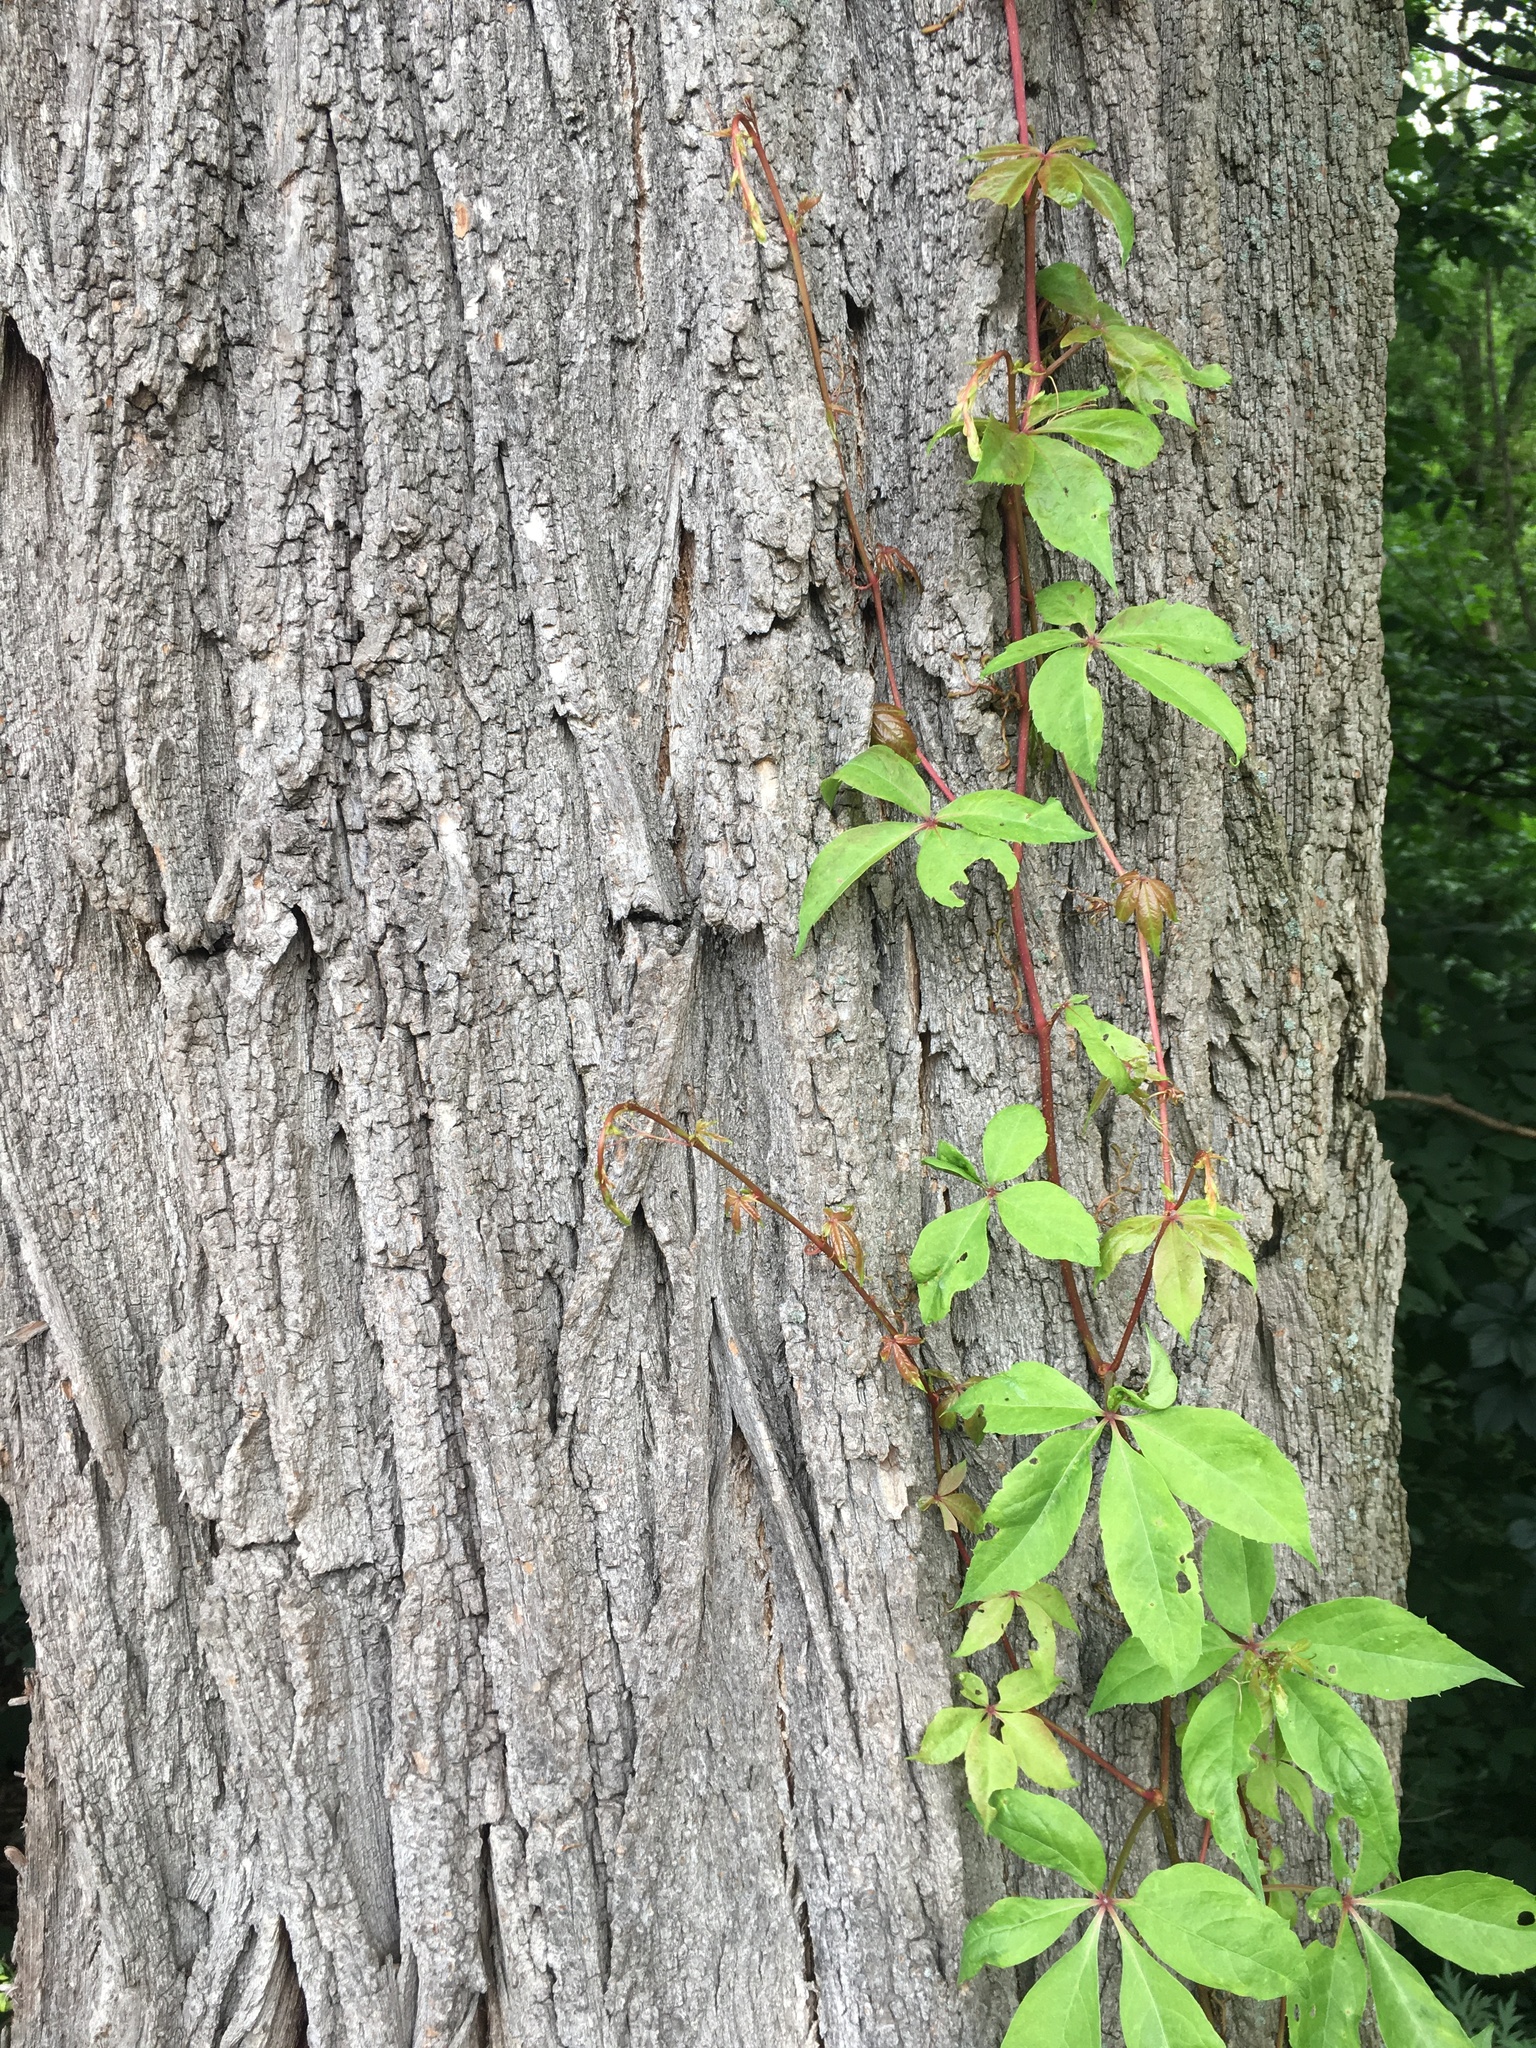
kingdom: Plantae
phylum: Tracheophyta
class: Magnoliopsida
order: Vitales
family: Vitaceae
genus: Parthenocissus
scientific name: Parthenocissus quinquefolia
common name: Virginia-creeper
